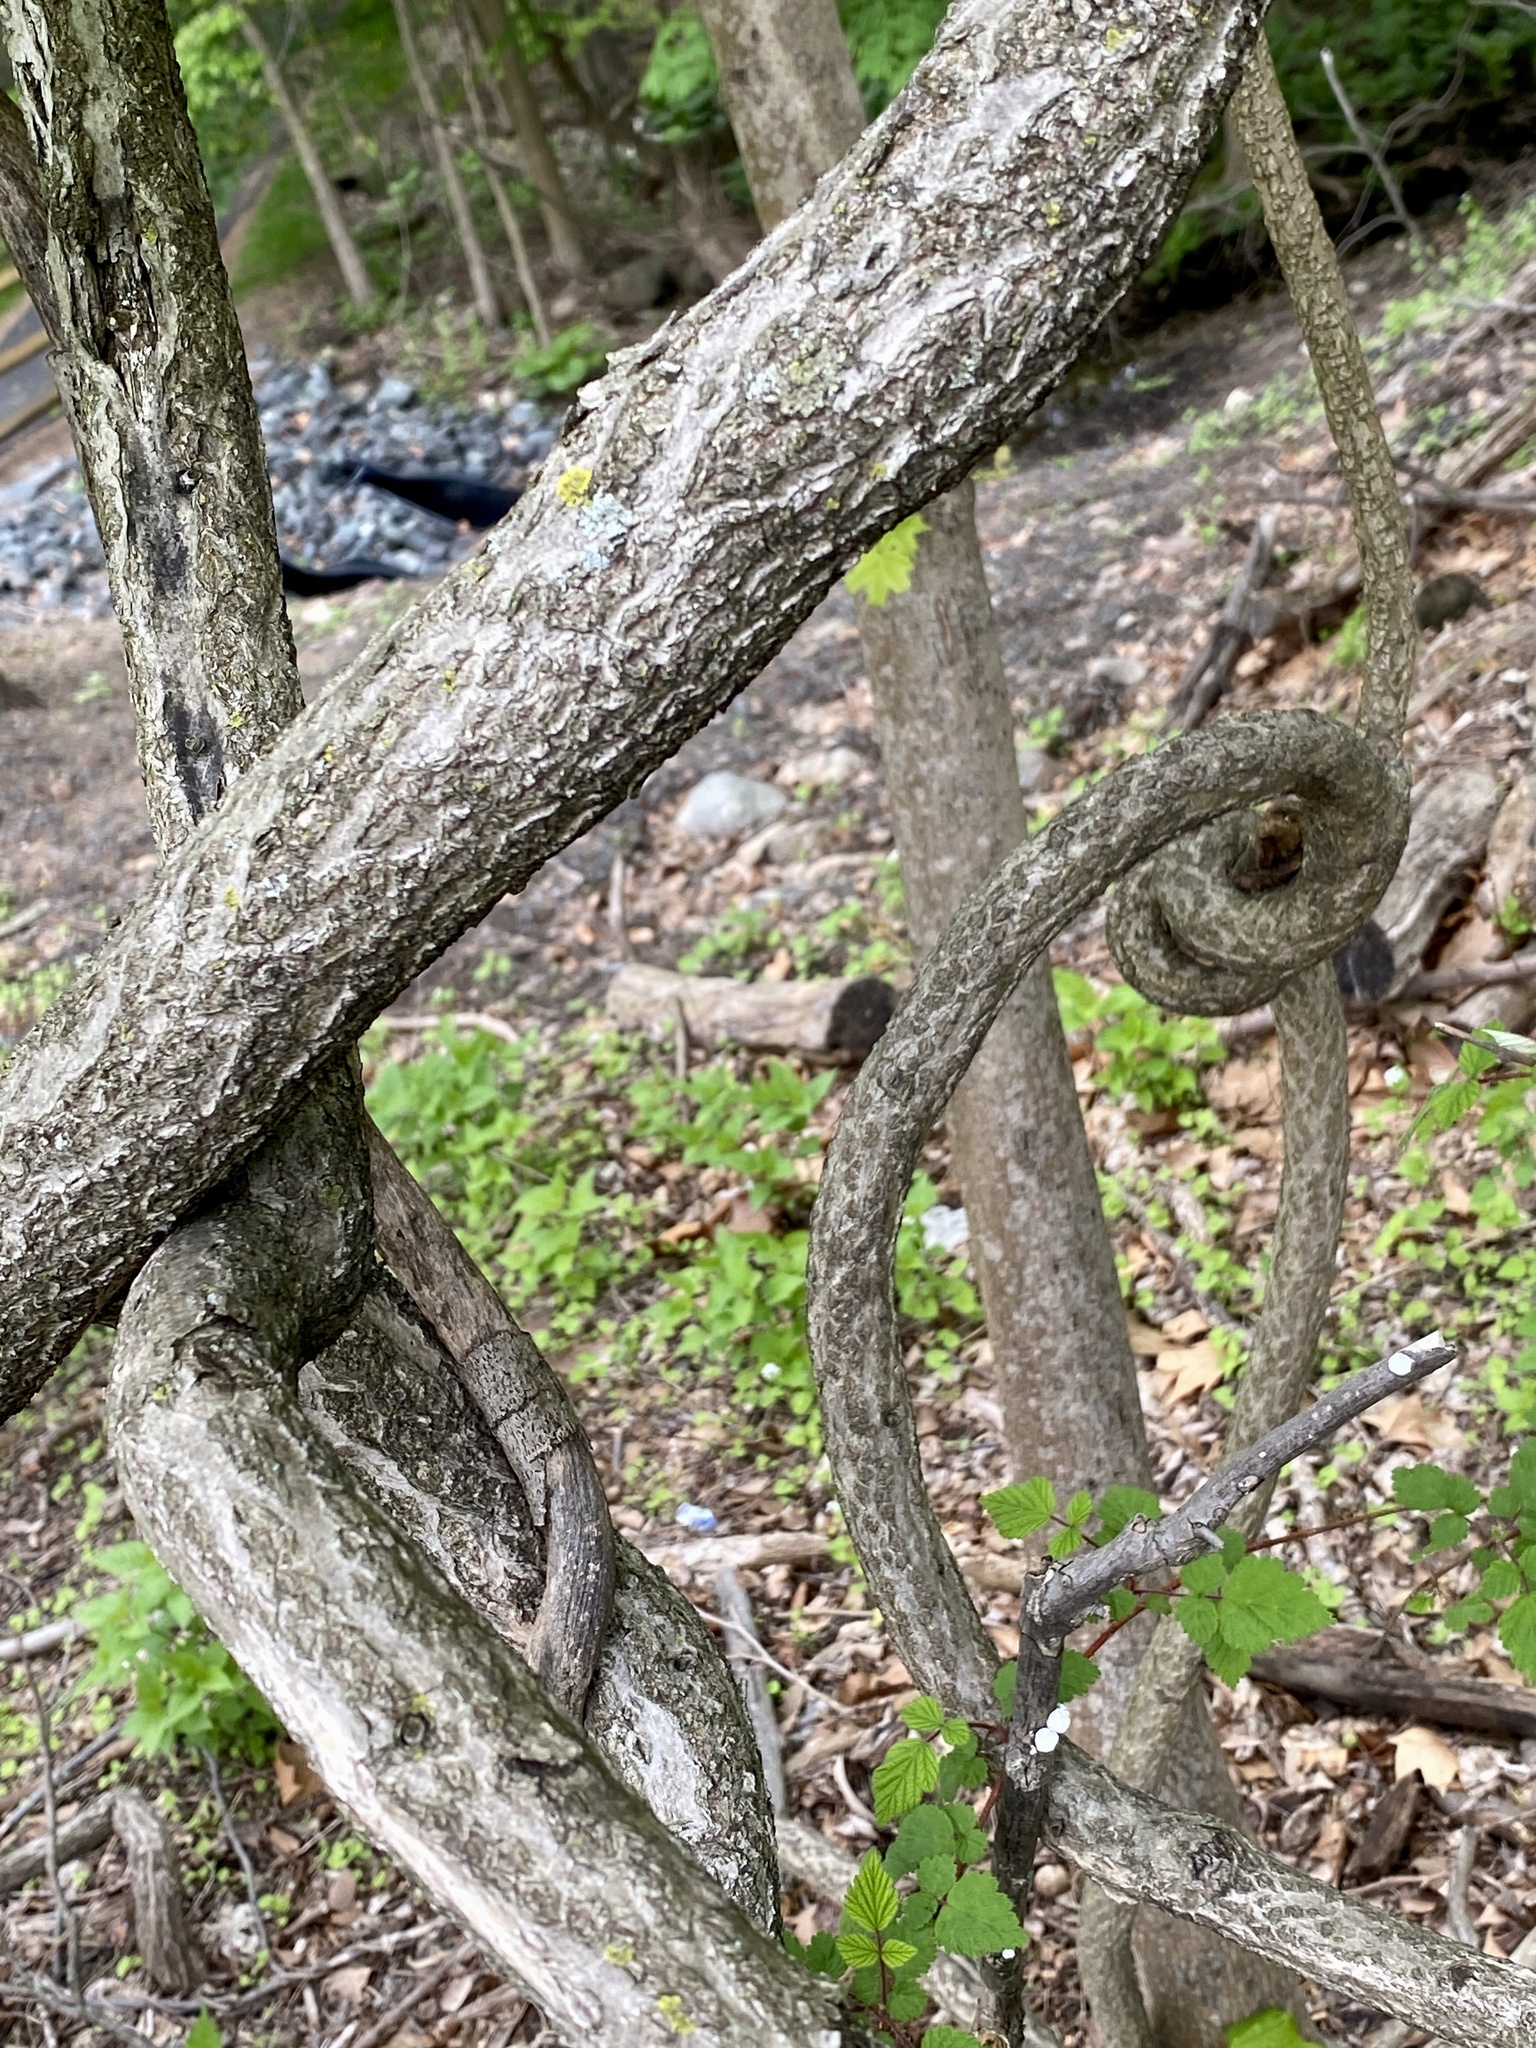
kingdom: Plantae
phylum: Tracheophyta
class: Magnoliopsida
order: Celastrales
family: Celastraceae
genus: Celastrus
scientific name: Celastrus orbiculatus
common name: Oriental bittersweet
